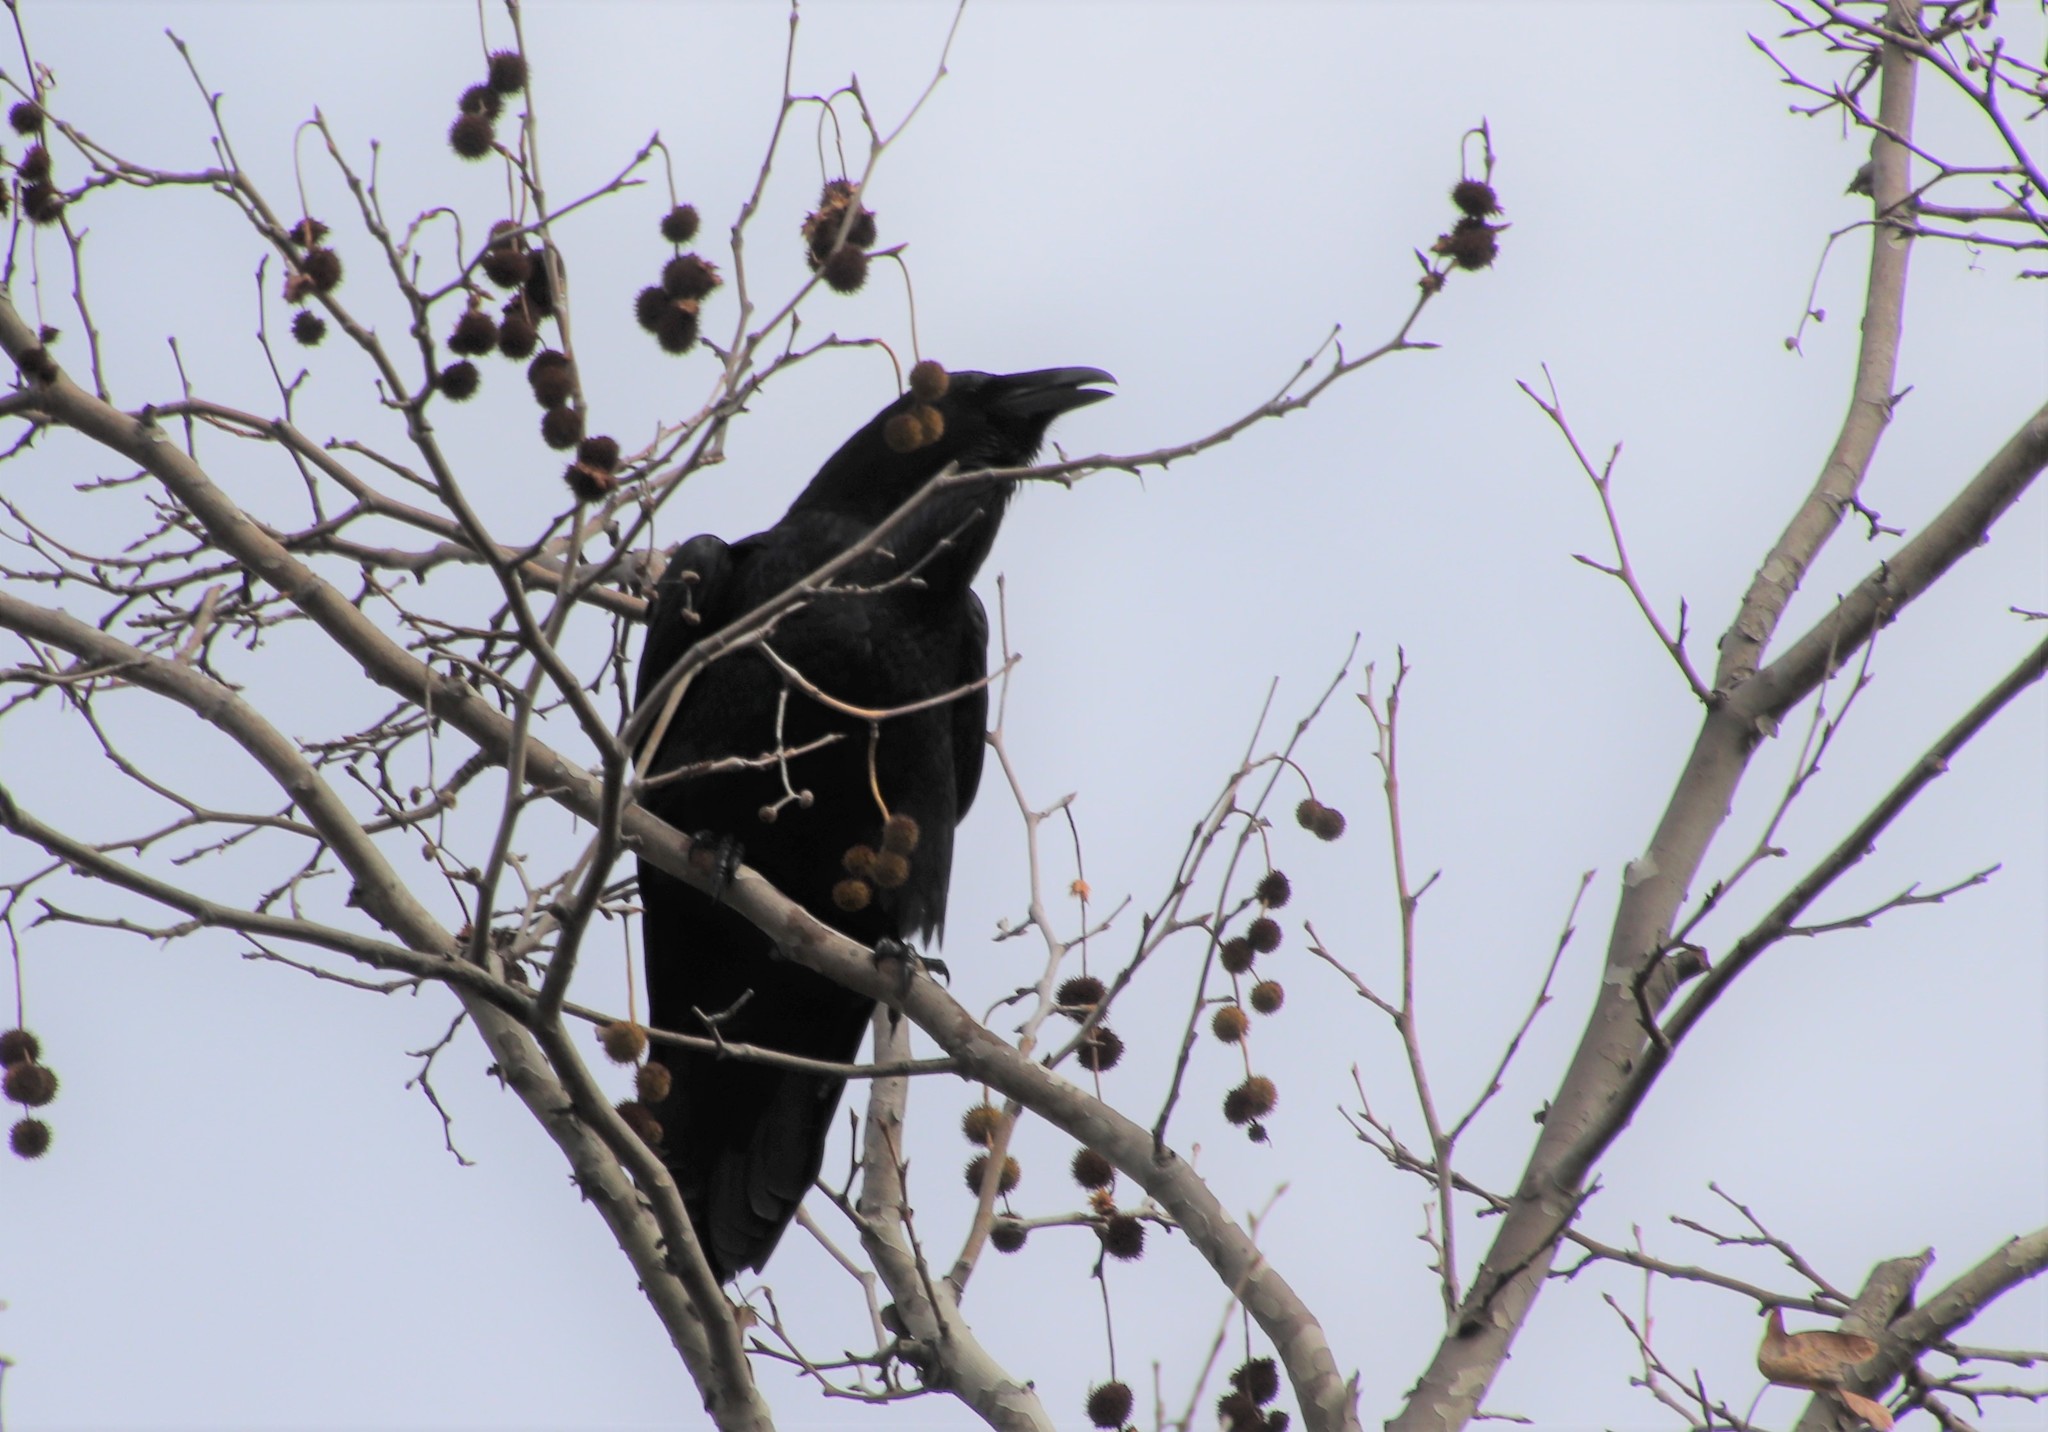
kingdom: Animalia
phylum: Chordata
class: Aves
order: Passeriformes
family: Corvidae
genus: Corvus
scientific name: Corvus corax
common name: Common raven
